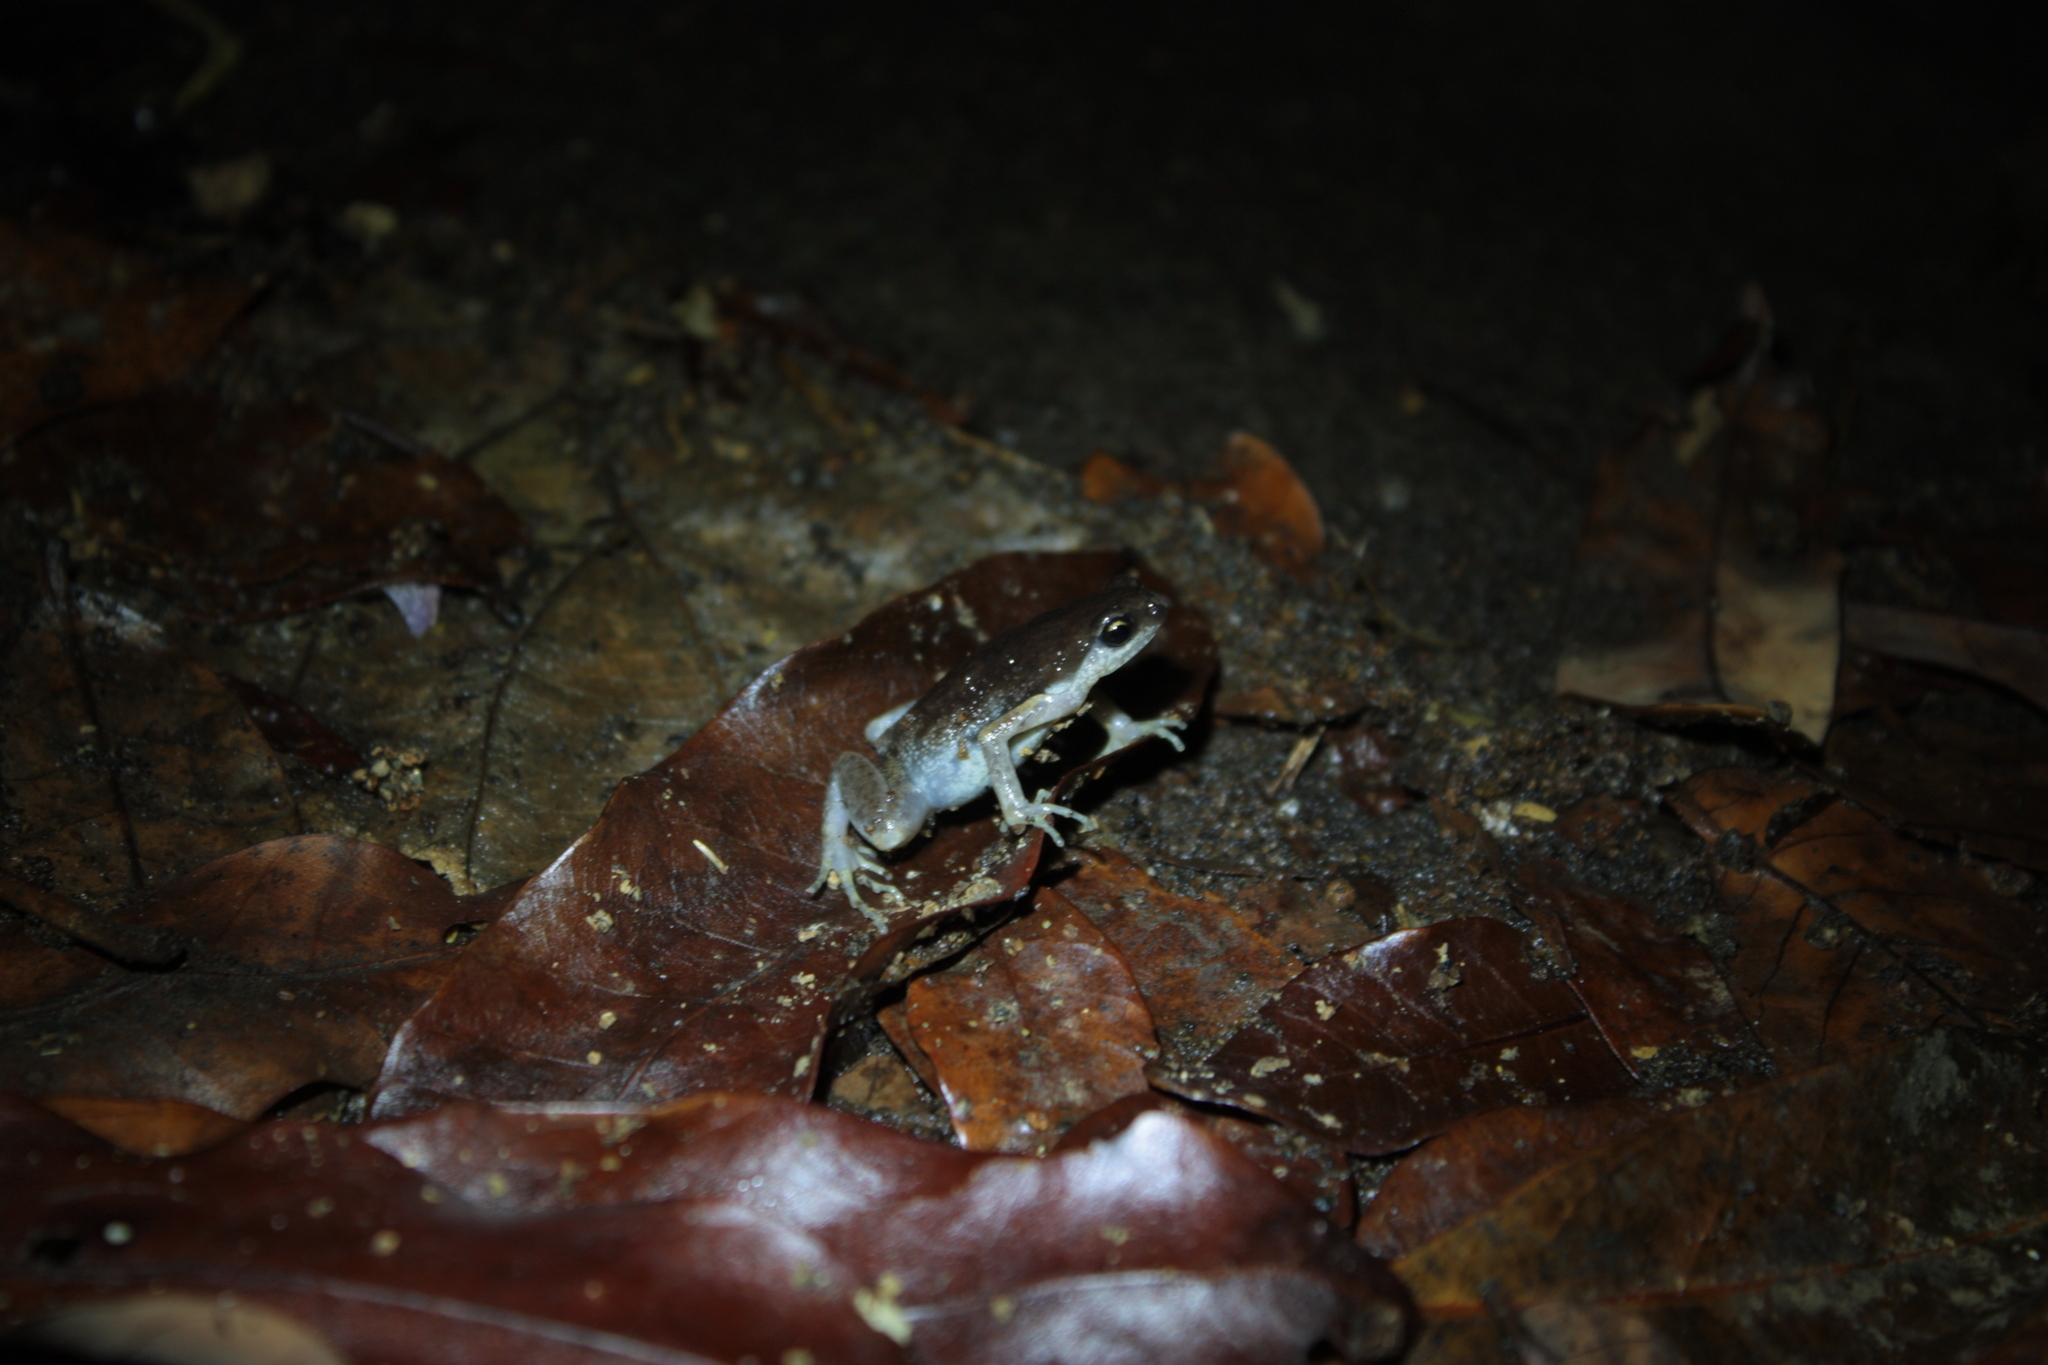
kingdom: Animalia
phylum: Chordata
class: Amphibia
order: Anura
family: Microhylidae
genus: Micryletta
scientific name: Micryletta steinegeri
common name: Stejneger's paddy frog
